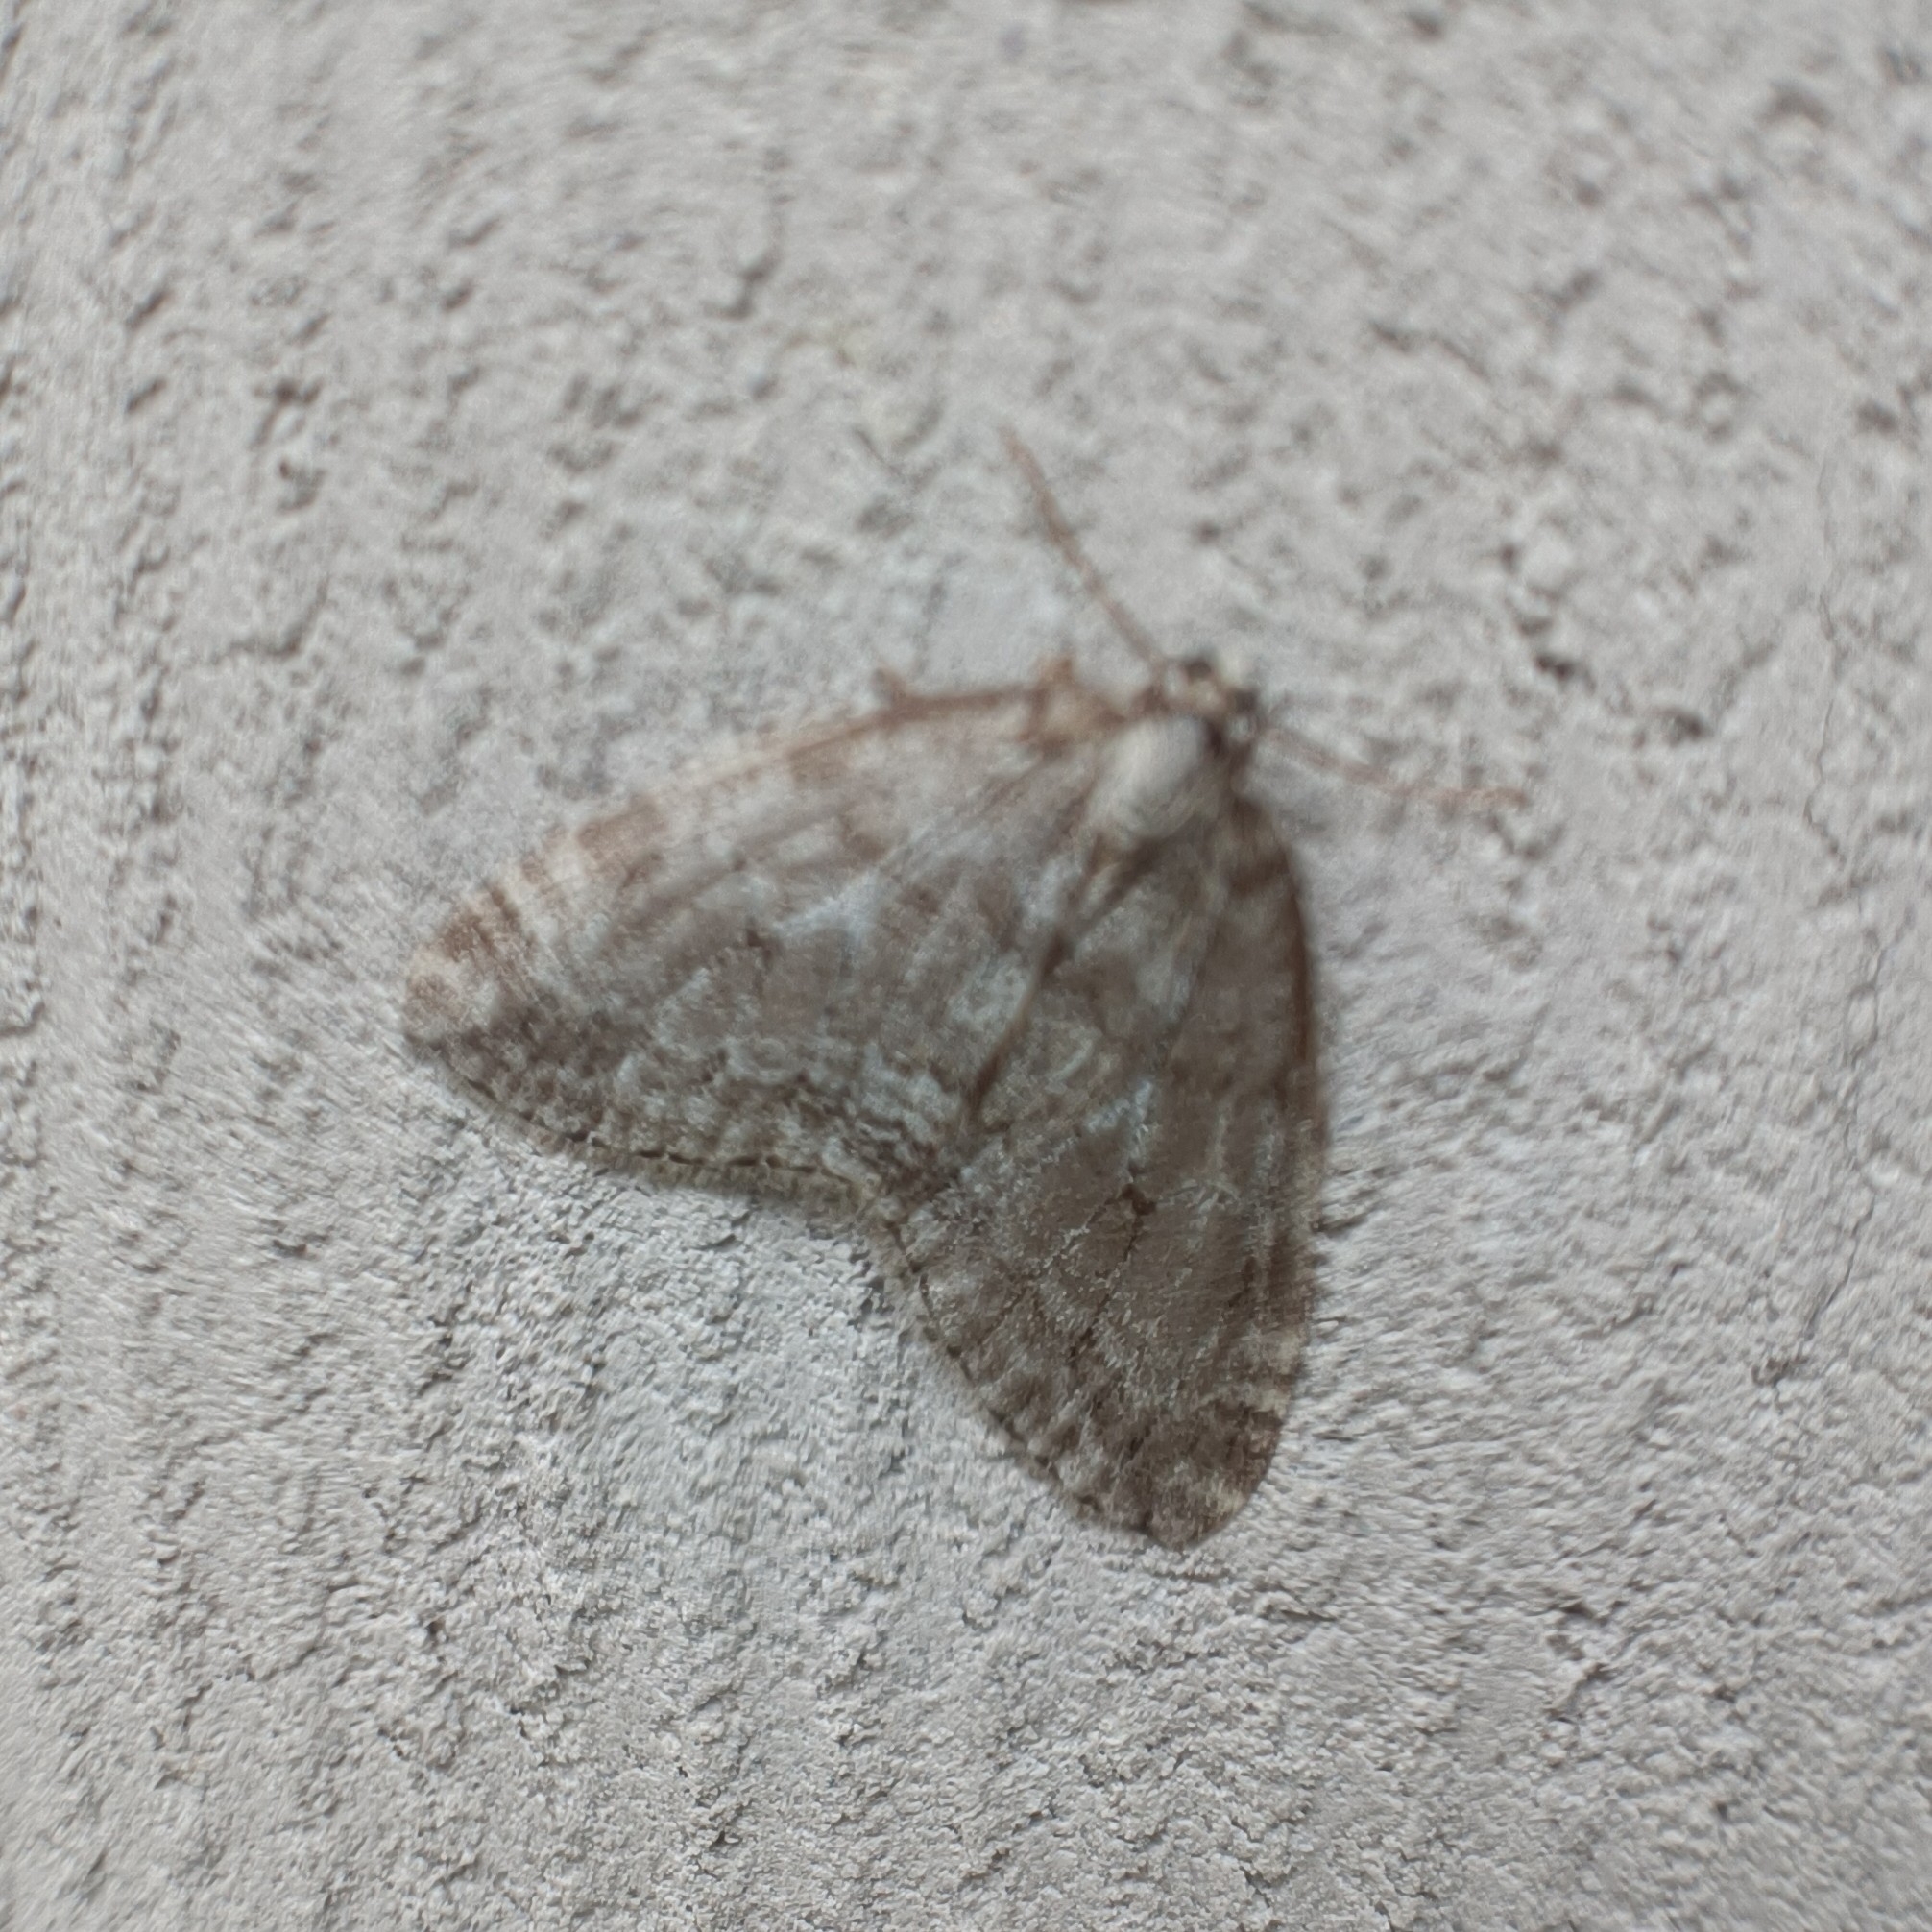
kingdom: Animalia
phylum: Arthropoda
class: Insecta
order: Lepidoptera
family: Geometridae
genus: Epirrita
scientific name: Epirrita autumnata
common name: Autumnal moth
